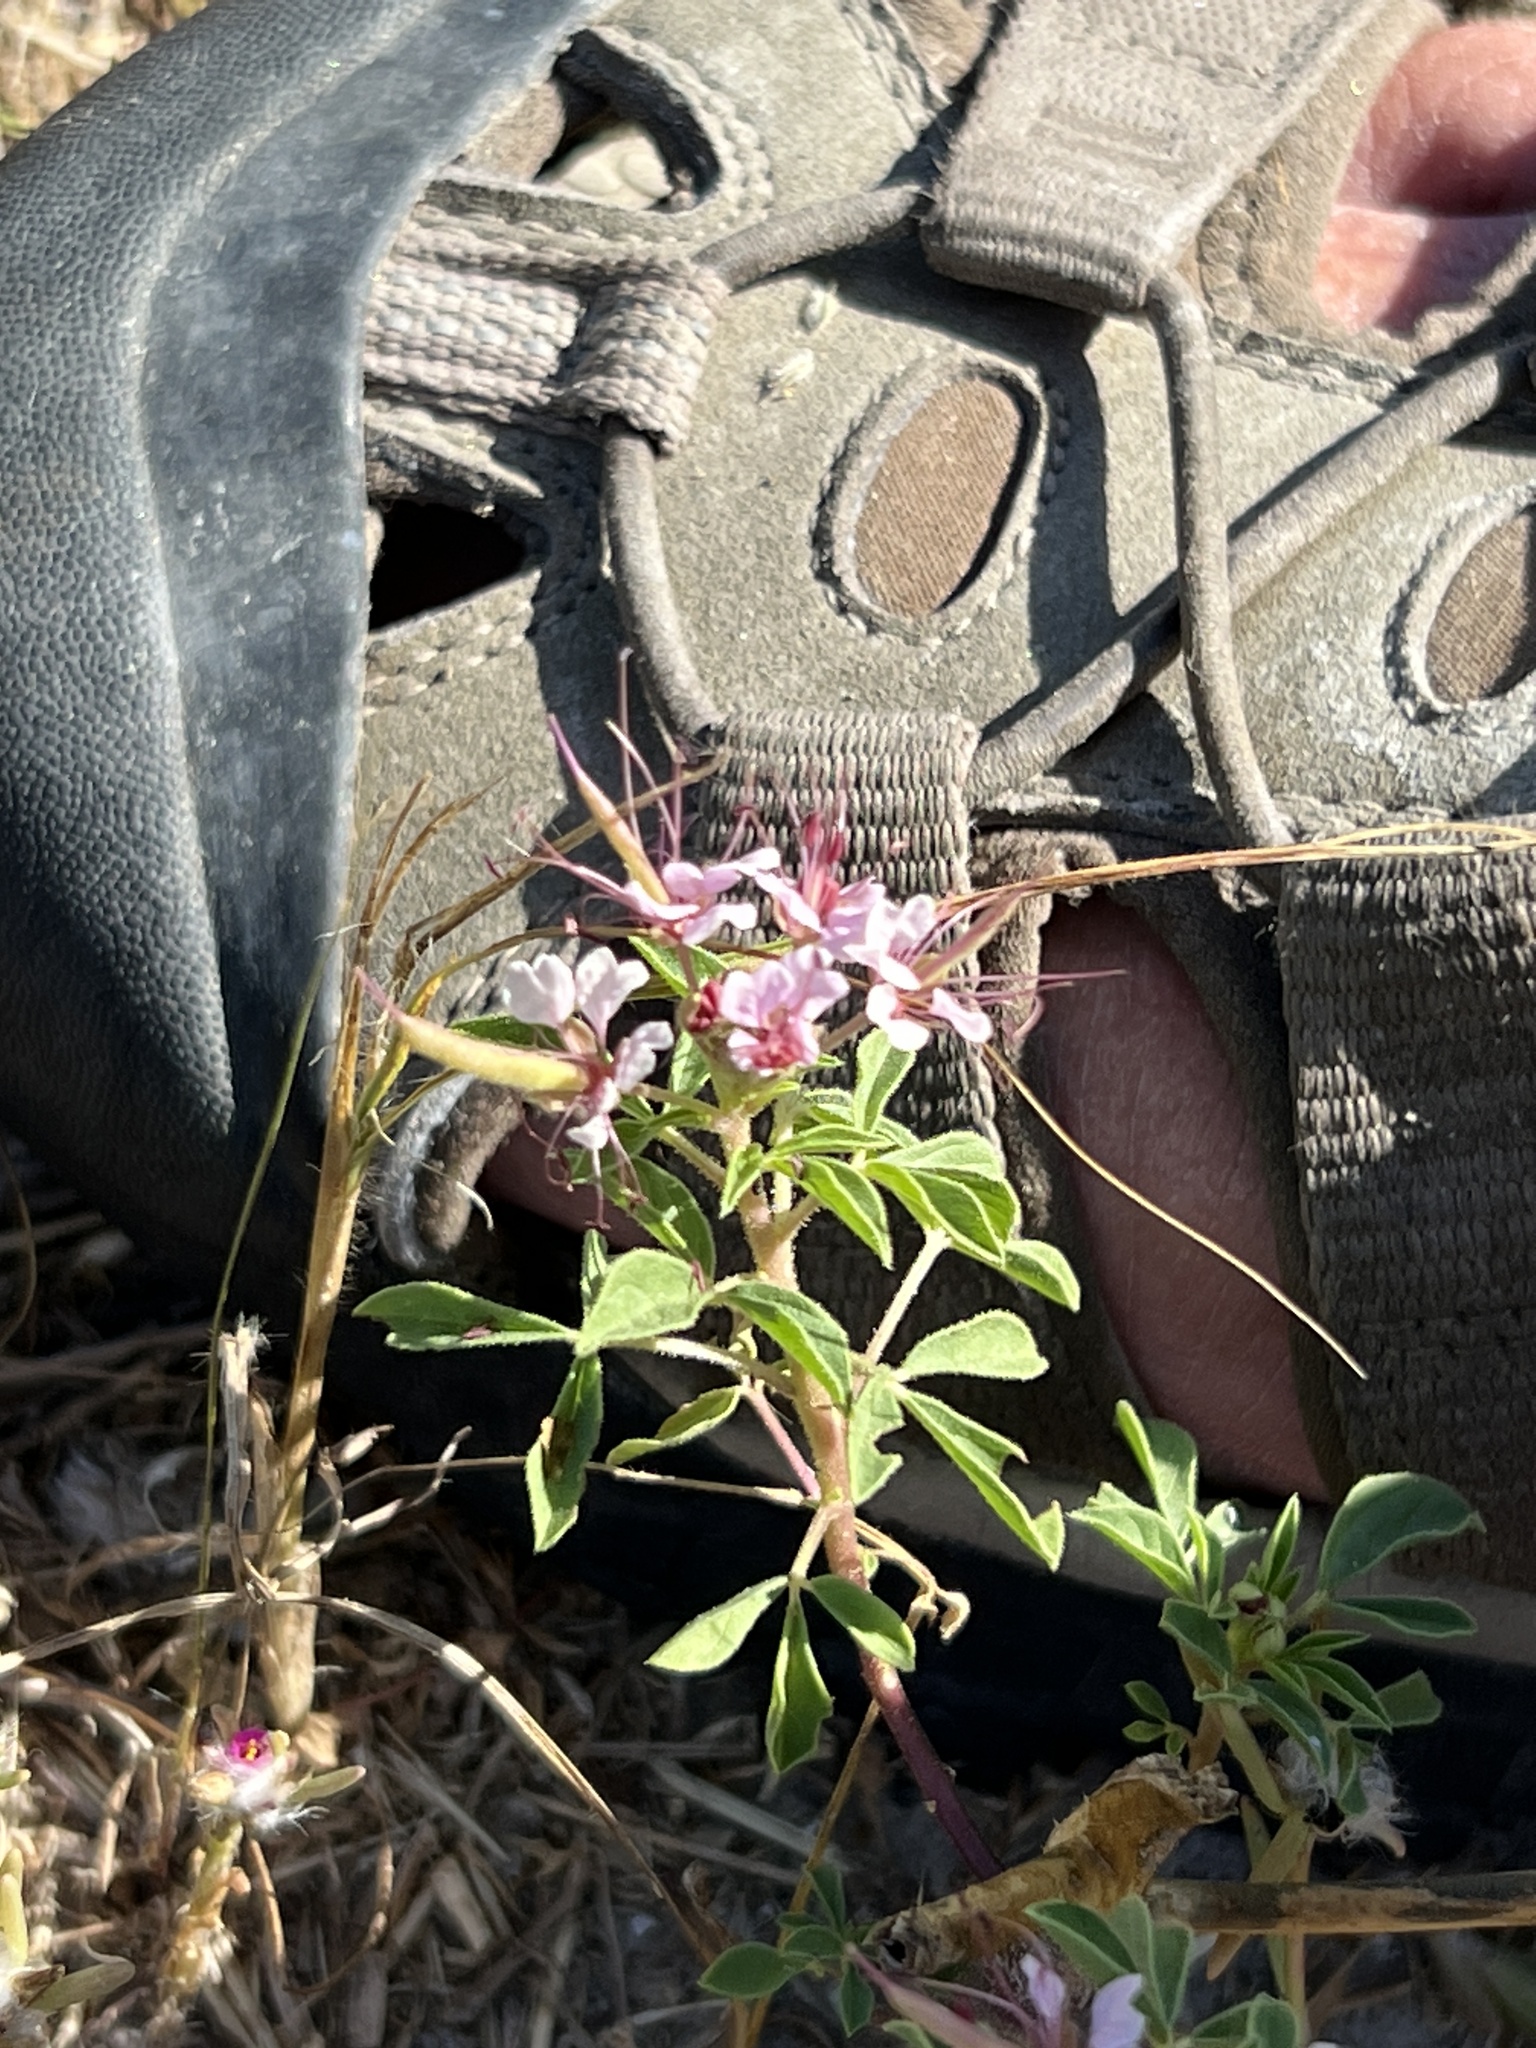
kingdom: Plantae
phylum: Tracheophyta
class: Magnoliopsida
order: Brassicales
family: Cleomaceae
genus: Polanisia
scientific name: Polanisia dodecandra
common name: Clammyweed
